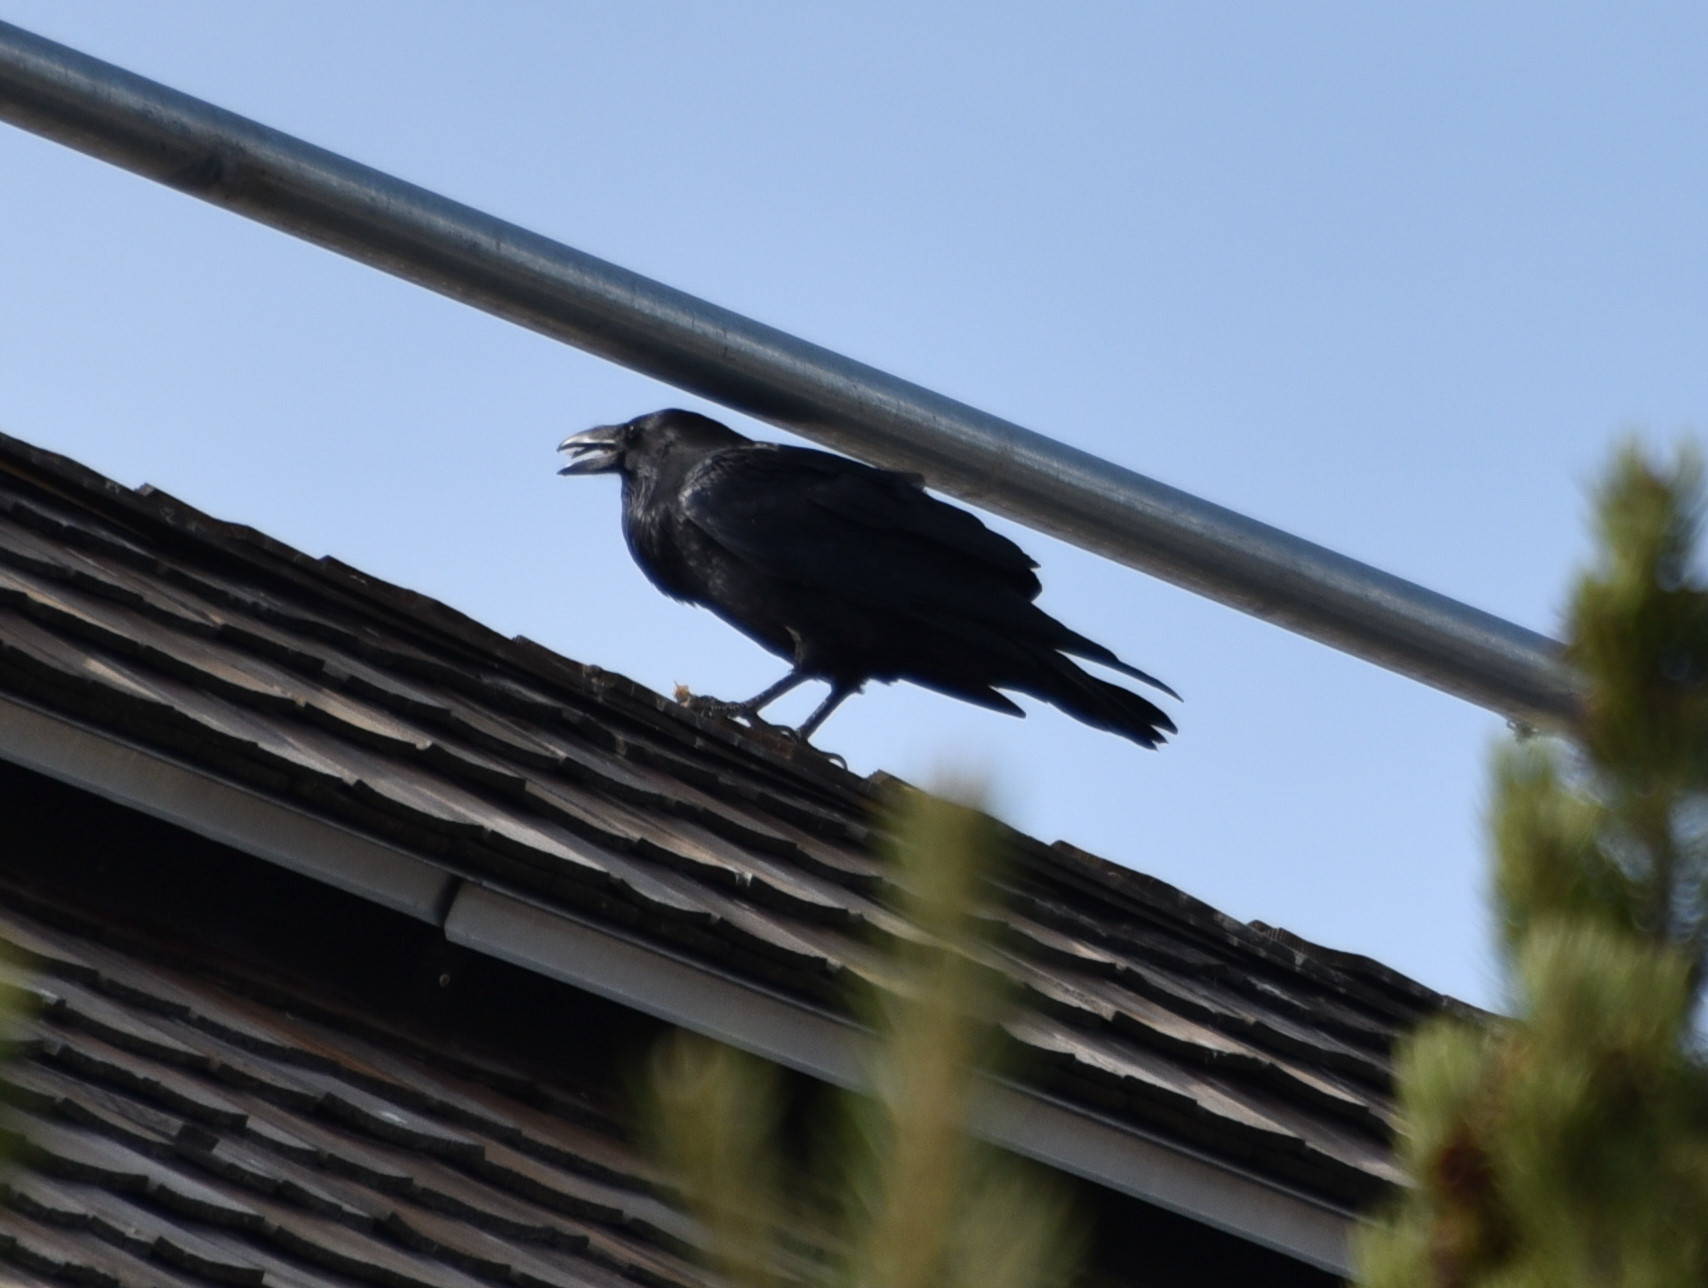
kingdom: Animalia
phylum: Chordata
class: Aves
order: Passeriformes
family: Corvidae
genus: Corvus
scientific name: Corvus corax
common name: Common raven
